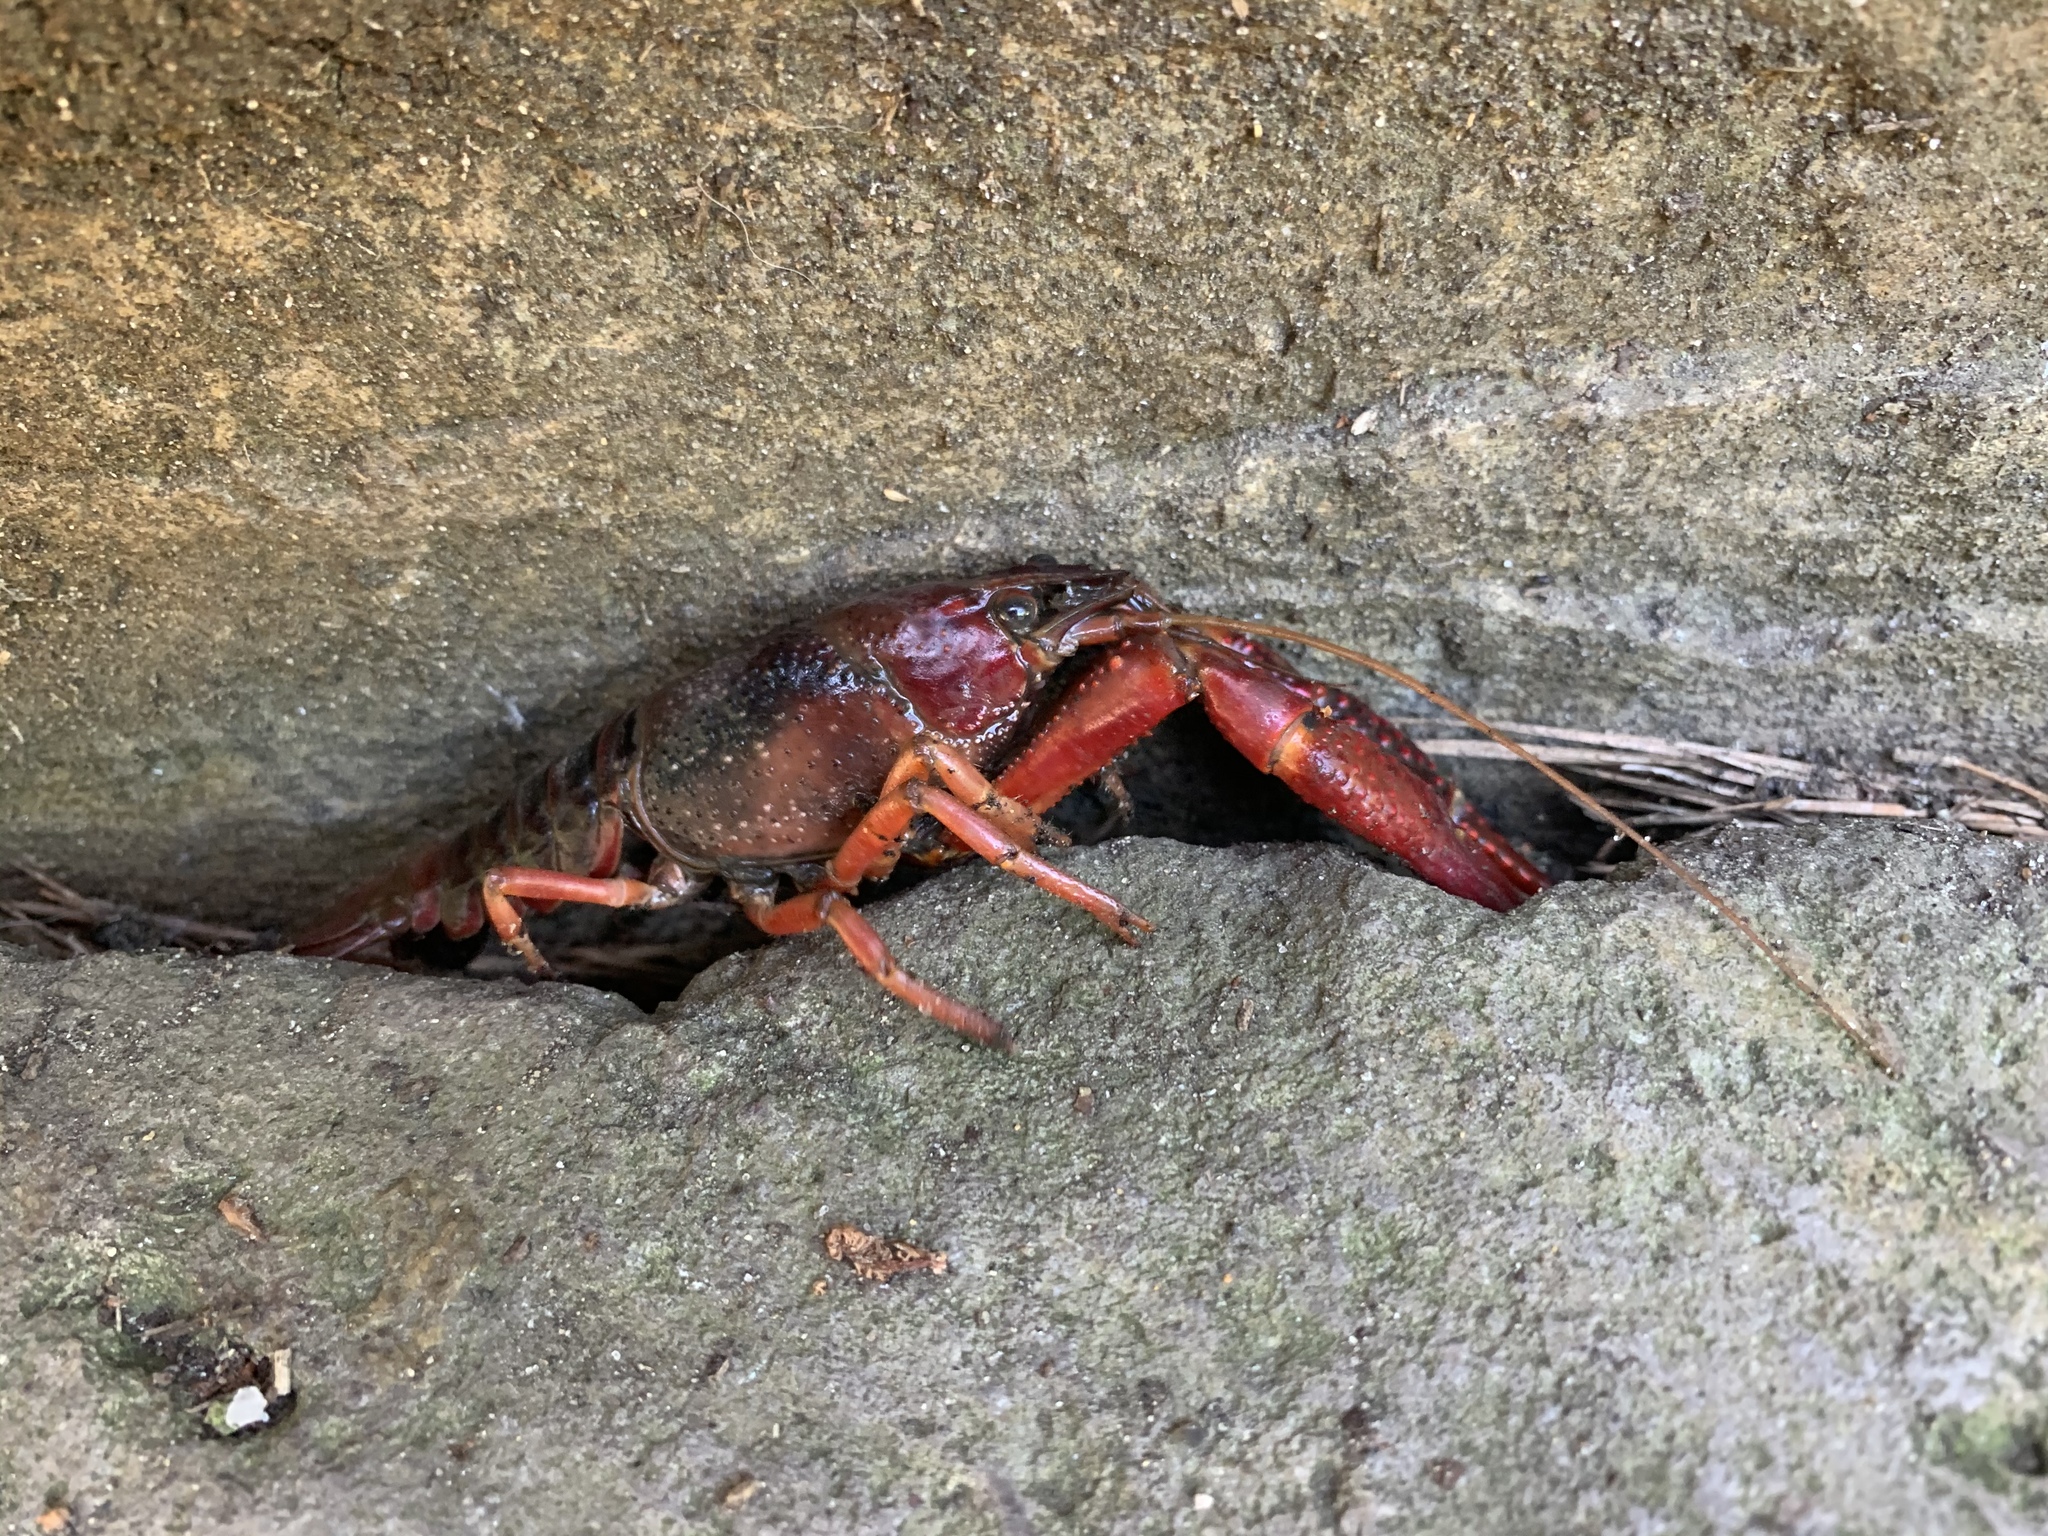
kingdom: Animalia
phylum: Arthropoda
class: Malacostraca
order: Decapoda
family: Cambaridae
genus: Procambarus
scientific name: Procambarus clarkii
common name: Red swamp crayfish
